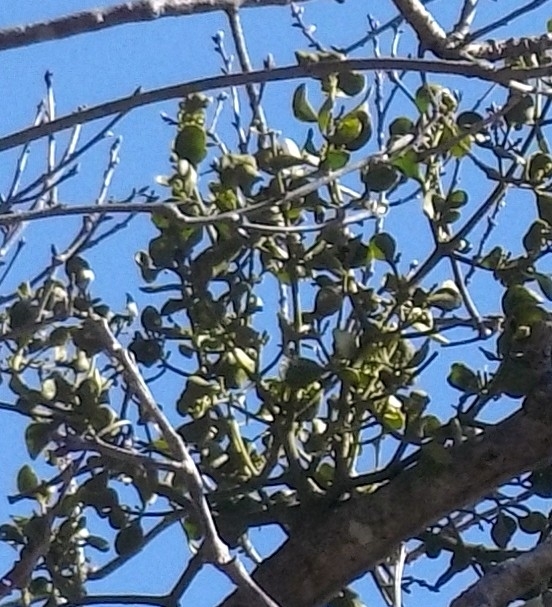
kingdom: Plantae
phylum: Tracheophyta
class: Magnoliopsida
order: Santalales
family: Viscaceae
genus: Phoradendron
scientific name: Phoradendron leucarpum
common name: Pacific mistletoe
